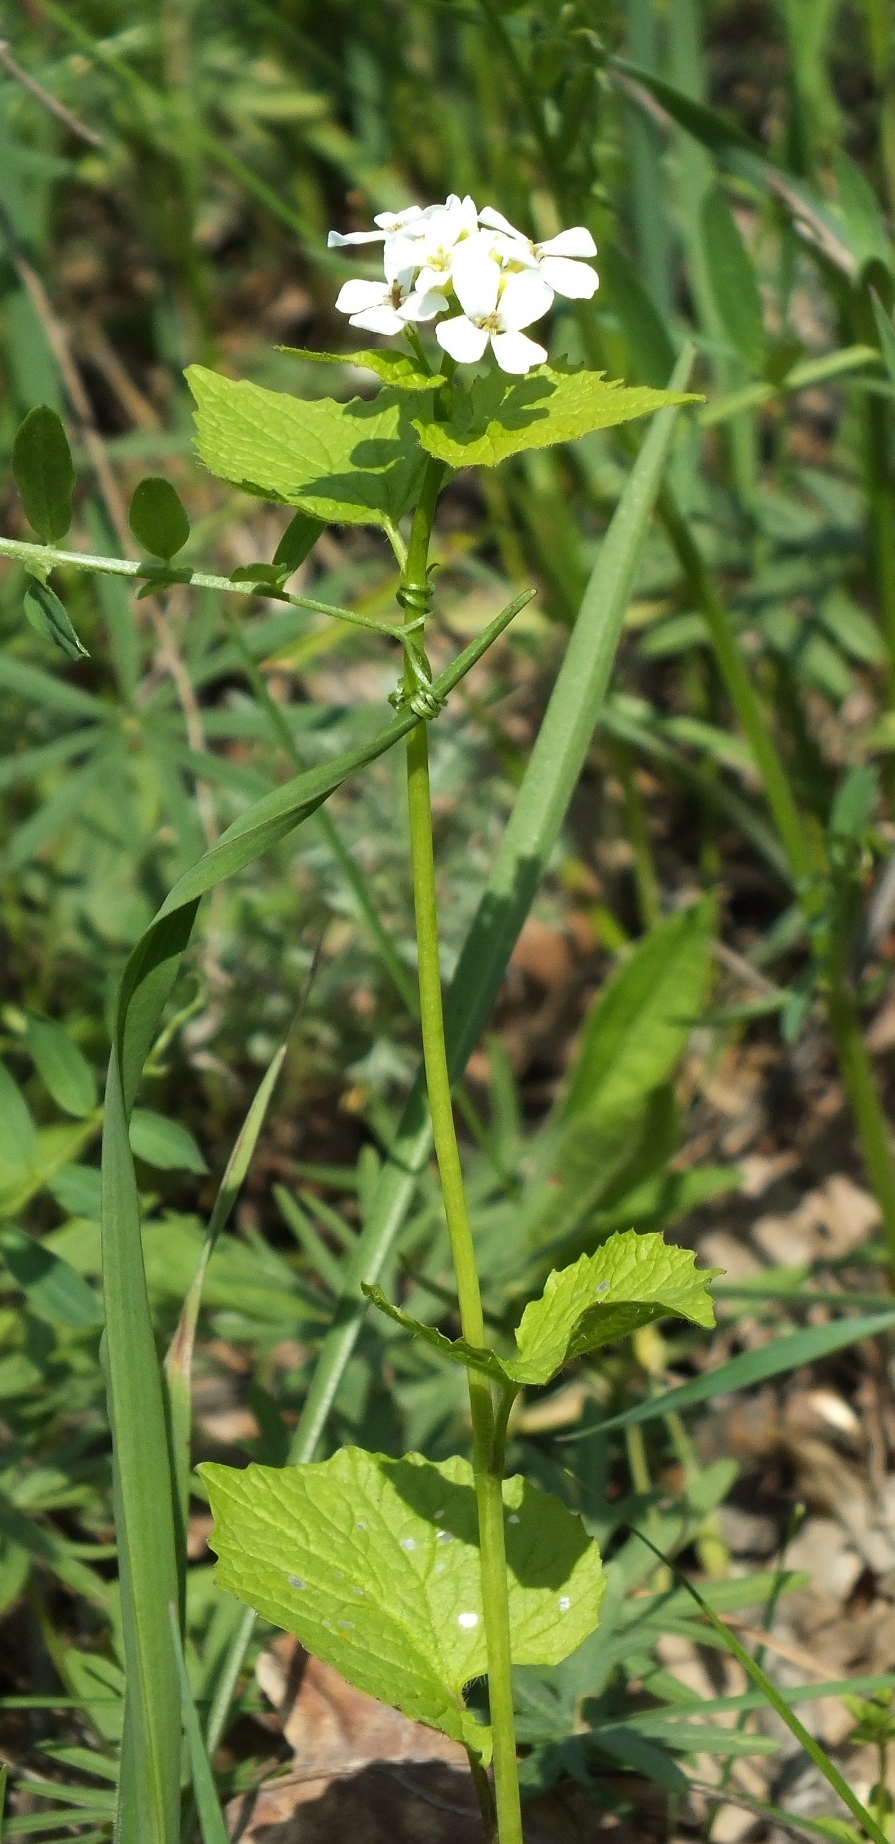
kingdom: Plantae
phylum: Tracheophyta
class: Magnoliopsida
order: Brassicales
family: Brassicaceae
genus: Alliaria
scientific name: Alliaria petiolata
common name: Garlic mustard
